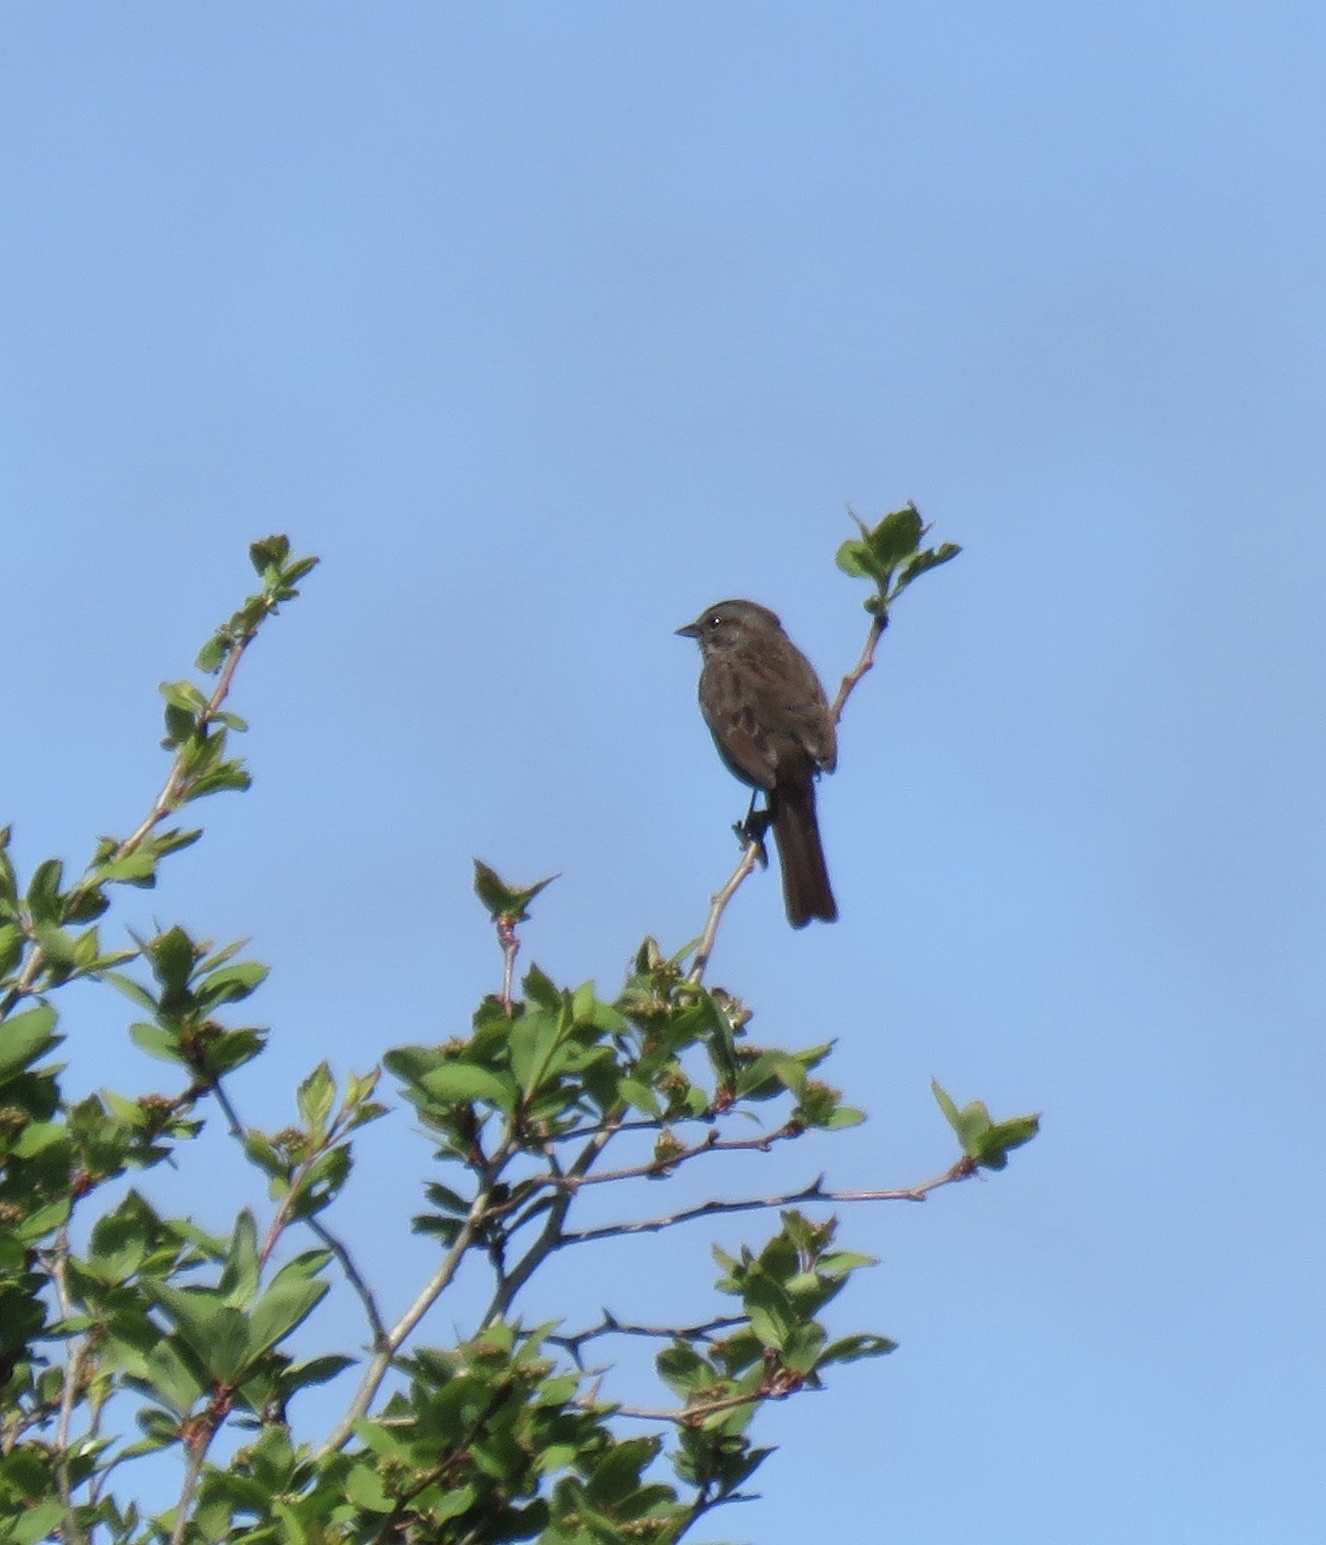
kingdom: Animalia
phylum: Chordata
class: Aves
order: Passeriformes
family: Passerellidae
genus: Melospiza
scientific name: Melospiza melodia
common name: Song sparrow
